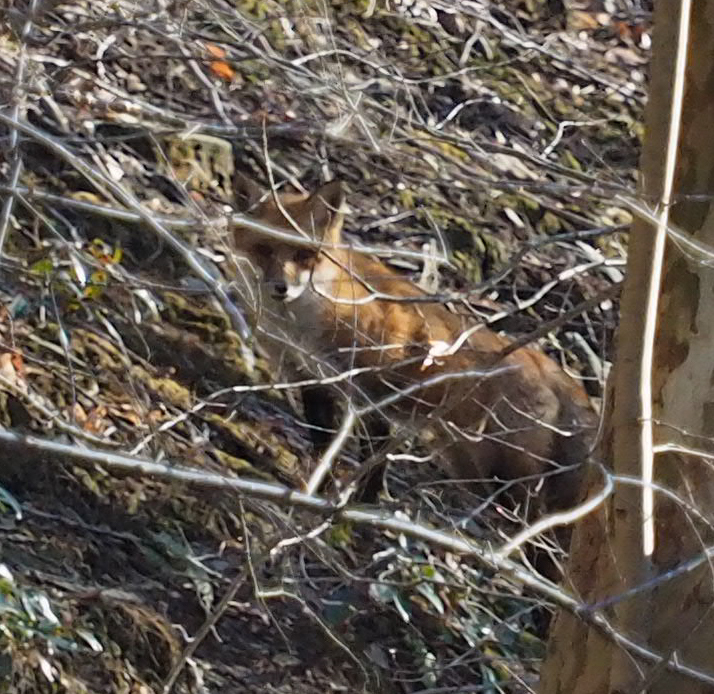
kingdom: Animalia
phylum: Chordata
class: Mammalia
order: Carnivora
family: Canidae
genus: Vulpes
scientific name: Vulpes vulpes
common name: Red fox
